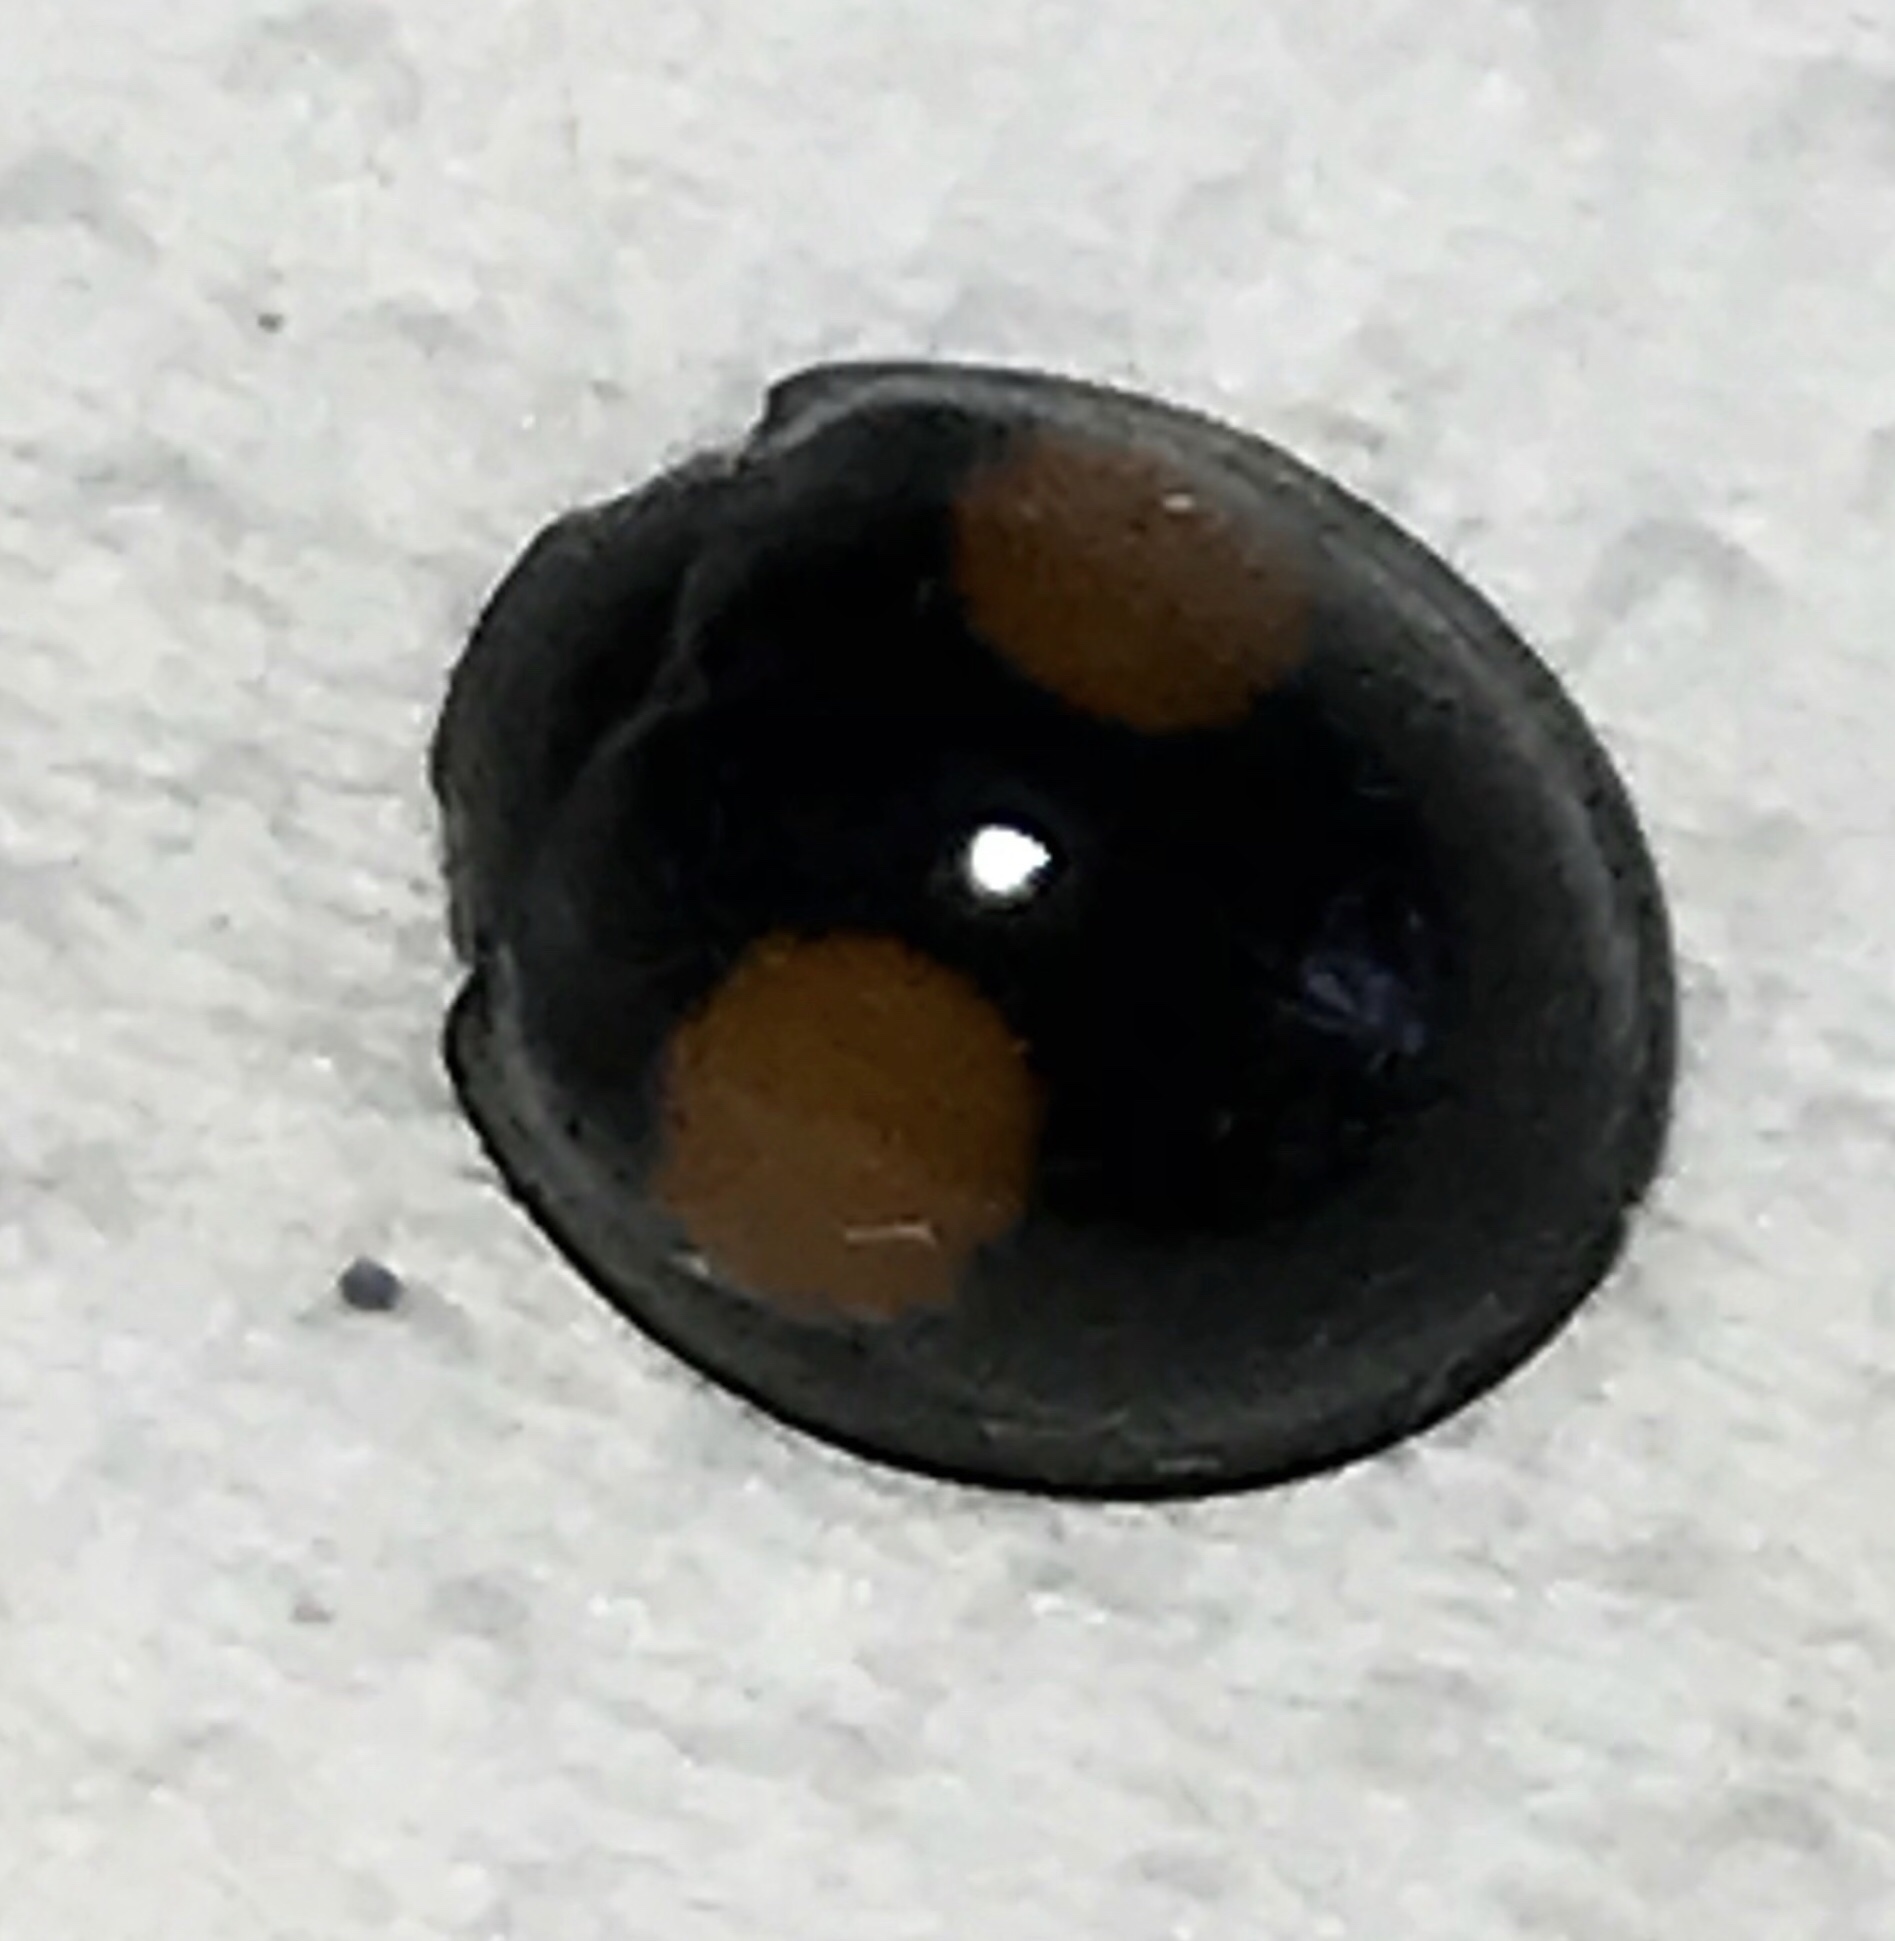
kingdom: Animalia
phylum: Arthropoda
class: Insecta
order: Coleoptera
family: Coccinellidae
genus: Chilocorus
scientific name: Chilocorus cacti
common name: Cactus lady beetle
